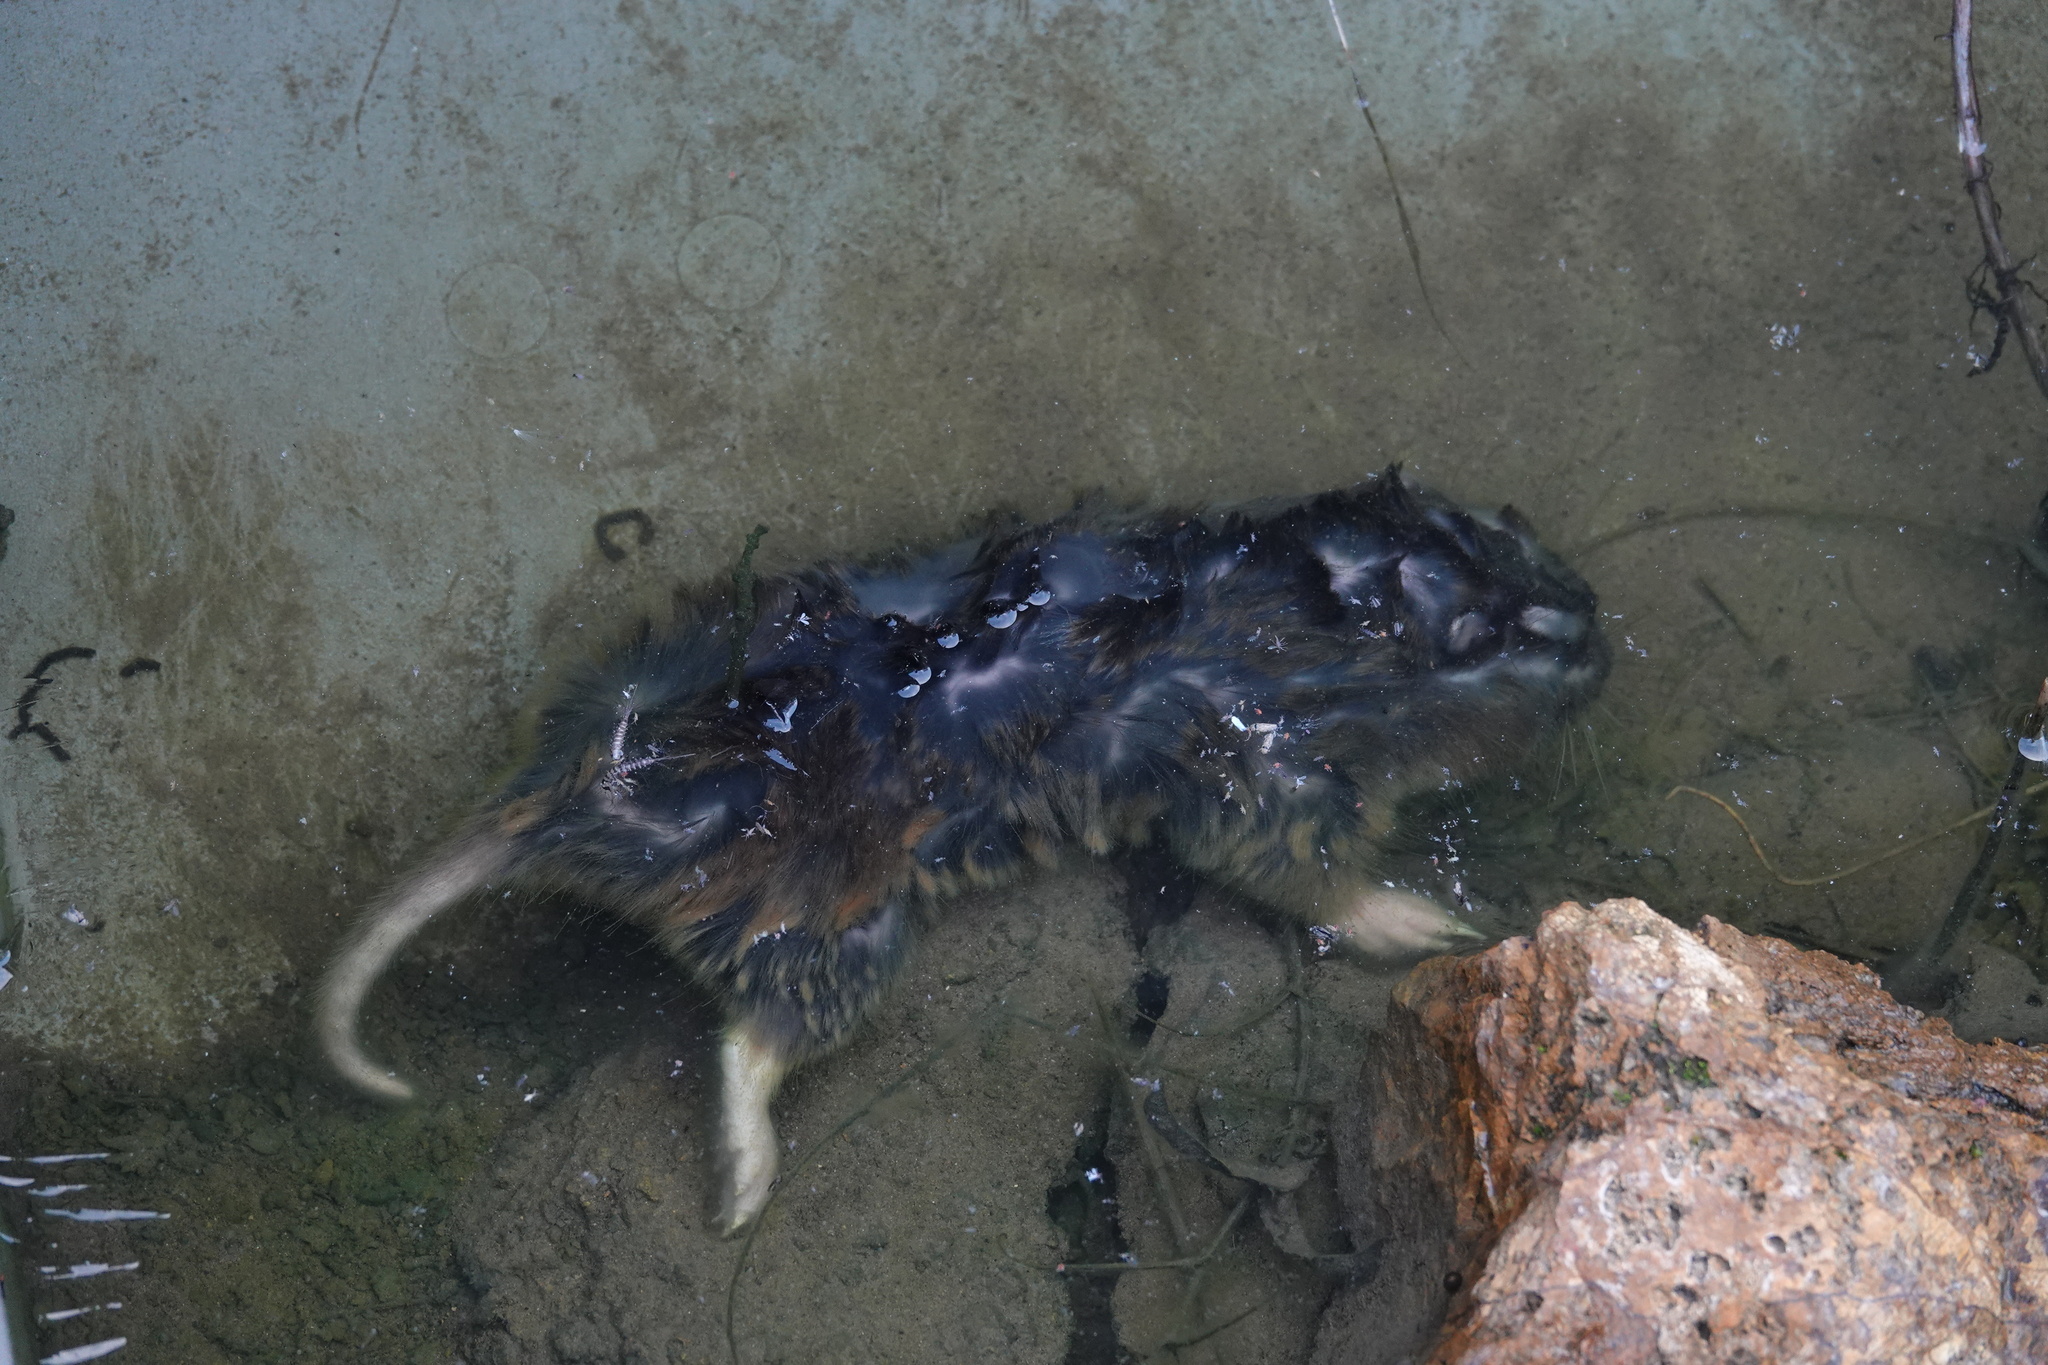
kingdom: Animalia
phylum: Chordata
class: Mammalia
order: Rodentia
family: Geomyidae
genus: Thomomys
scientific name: Thomomys bottae
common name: Botta's pocket gopher
